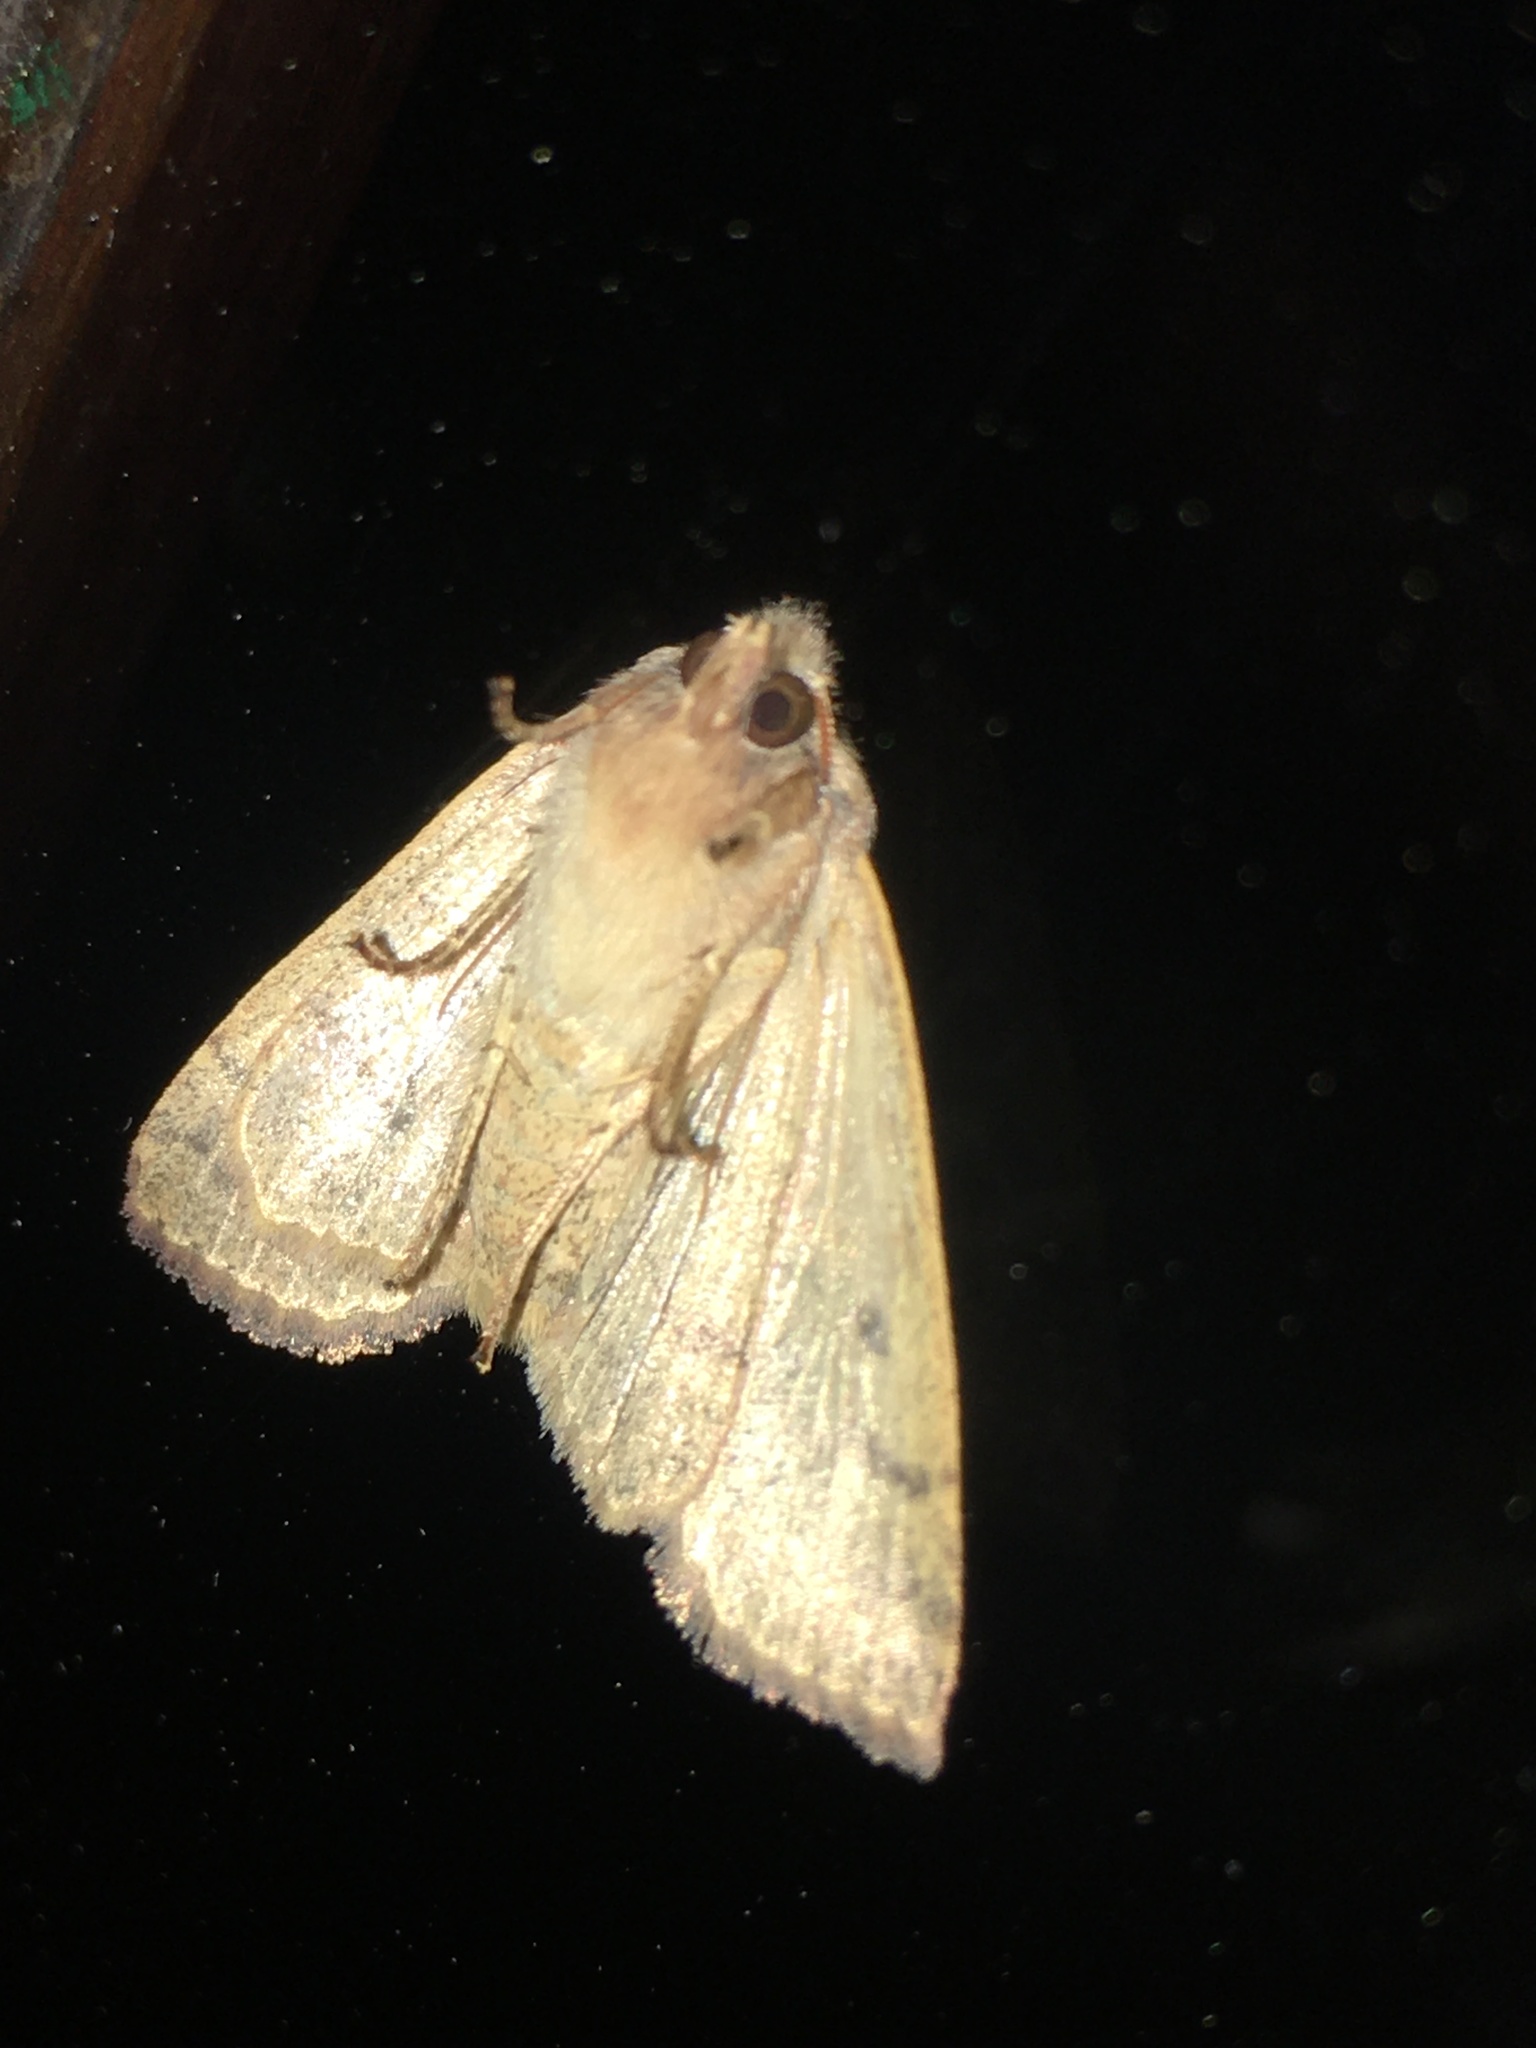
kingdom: Animalia
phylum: Arthropoda
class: Insecta
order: Lepidoptera
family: Noctuidae
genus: Agrochola
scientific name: Agrochola bicolorago
